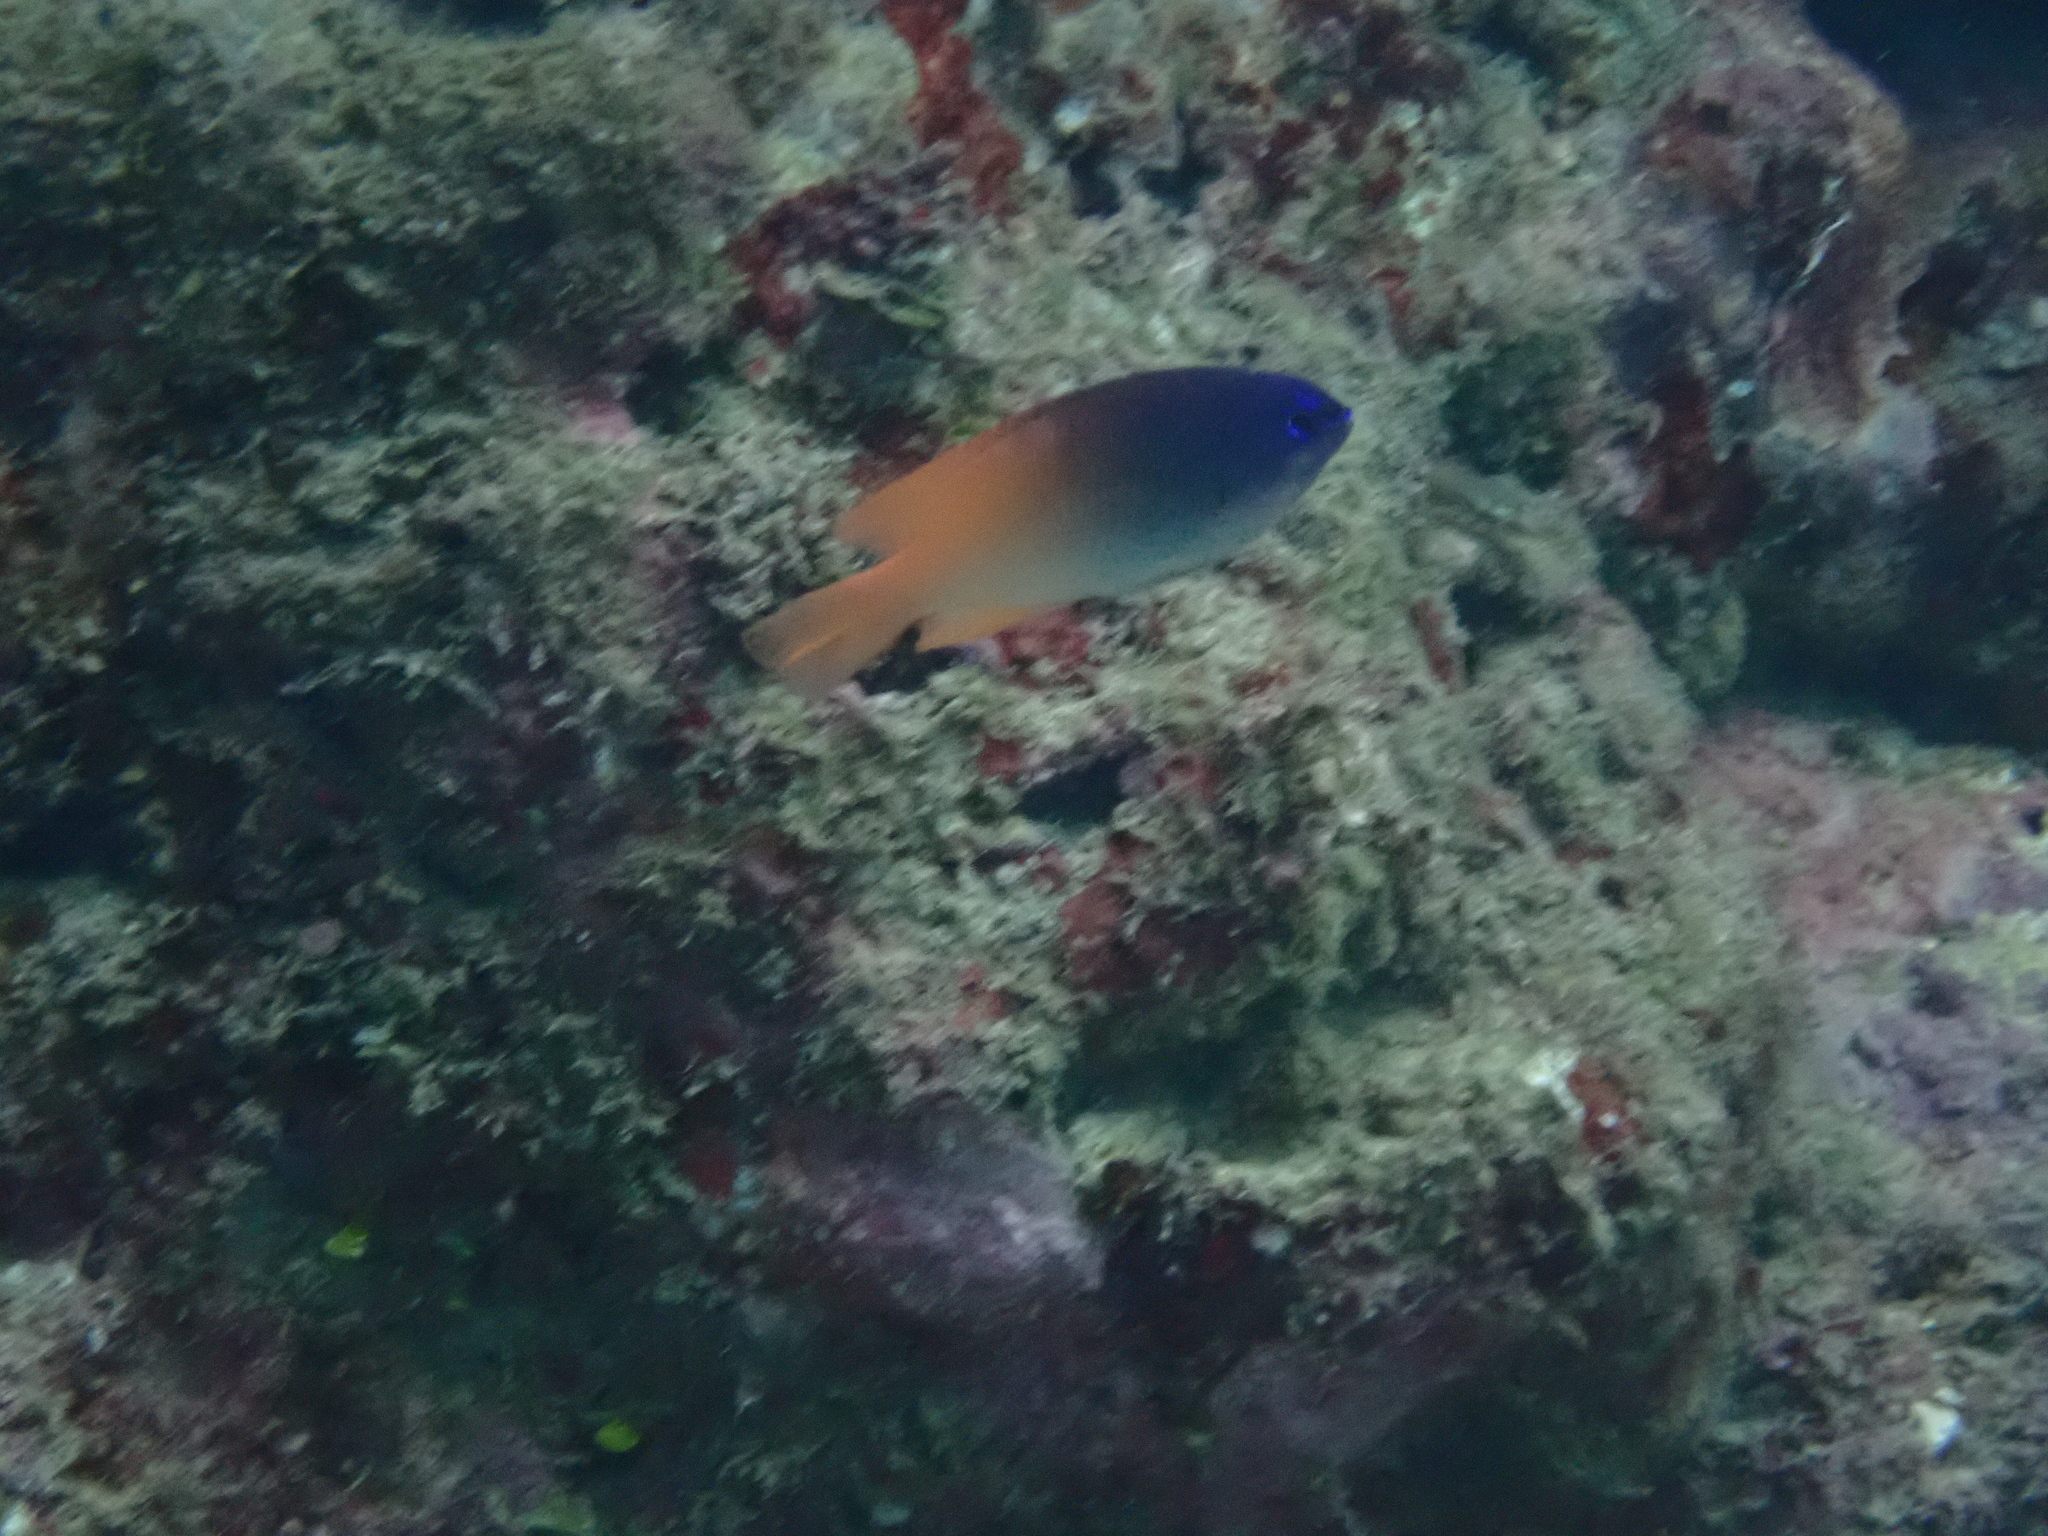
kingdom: Animalia
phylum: Chordata
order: Perciformes
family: Pomacentridae
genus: Chrysiptera
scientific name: Chrysiptera rex
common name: King demoiselle
